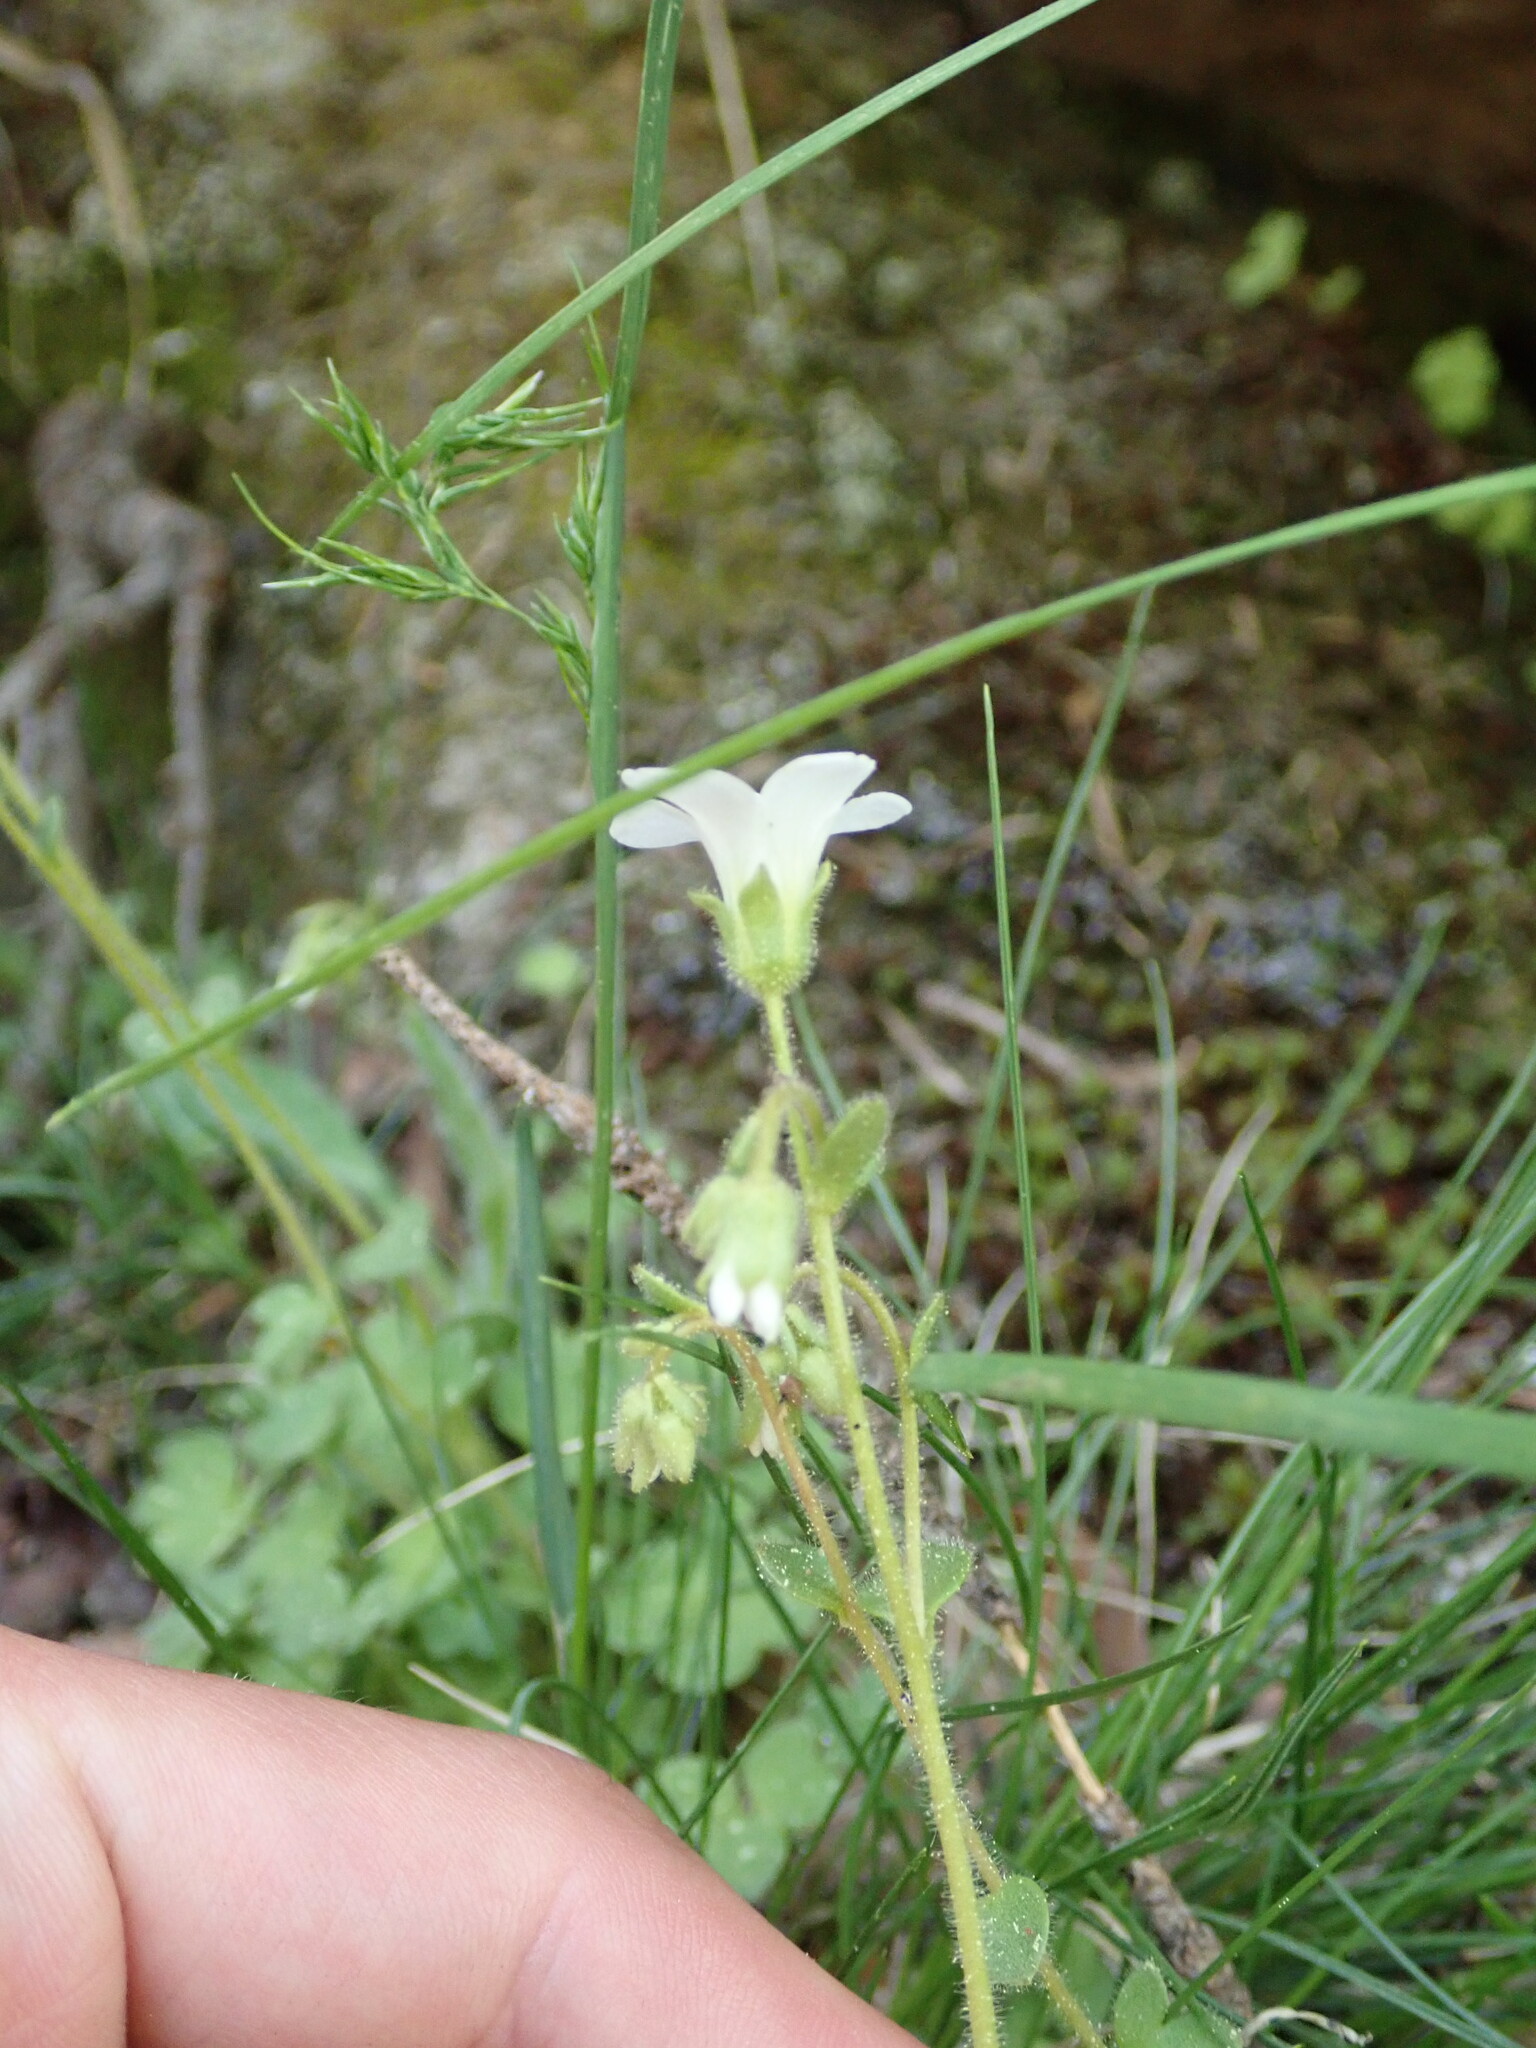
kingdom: Plantae
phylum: Tracheophyta
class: Magnoliopsida
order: Saxifragales
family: Saxifragaceae
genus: Saxifraga
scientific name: Saxifraga sibirica
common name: Siberian saxifrage
